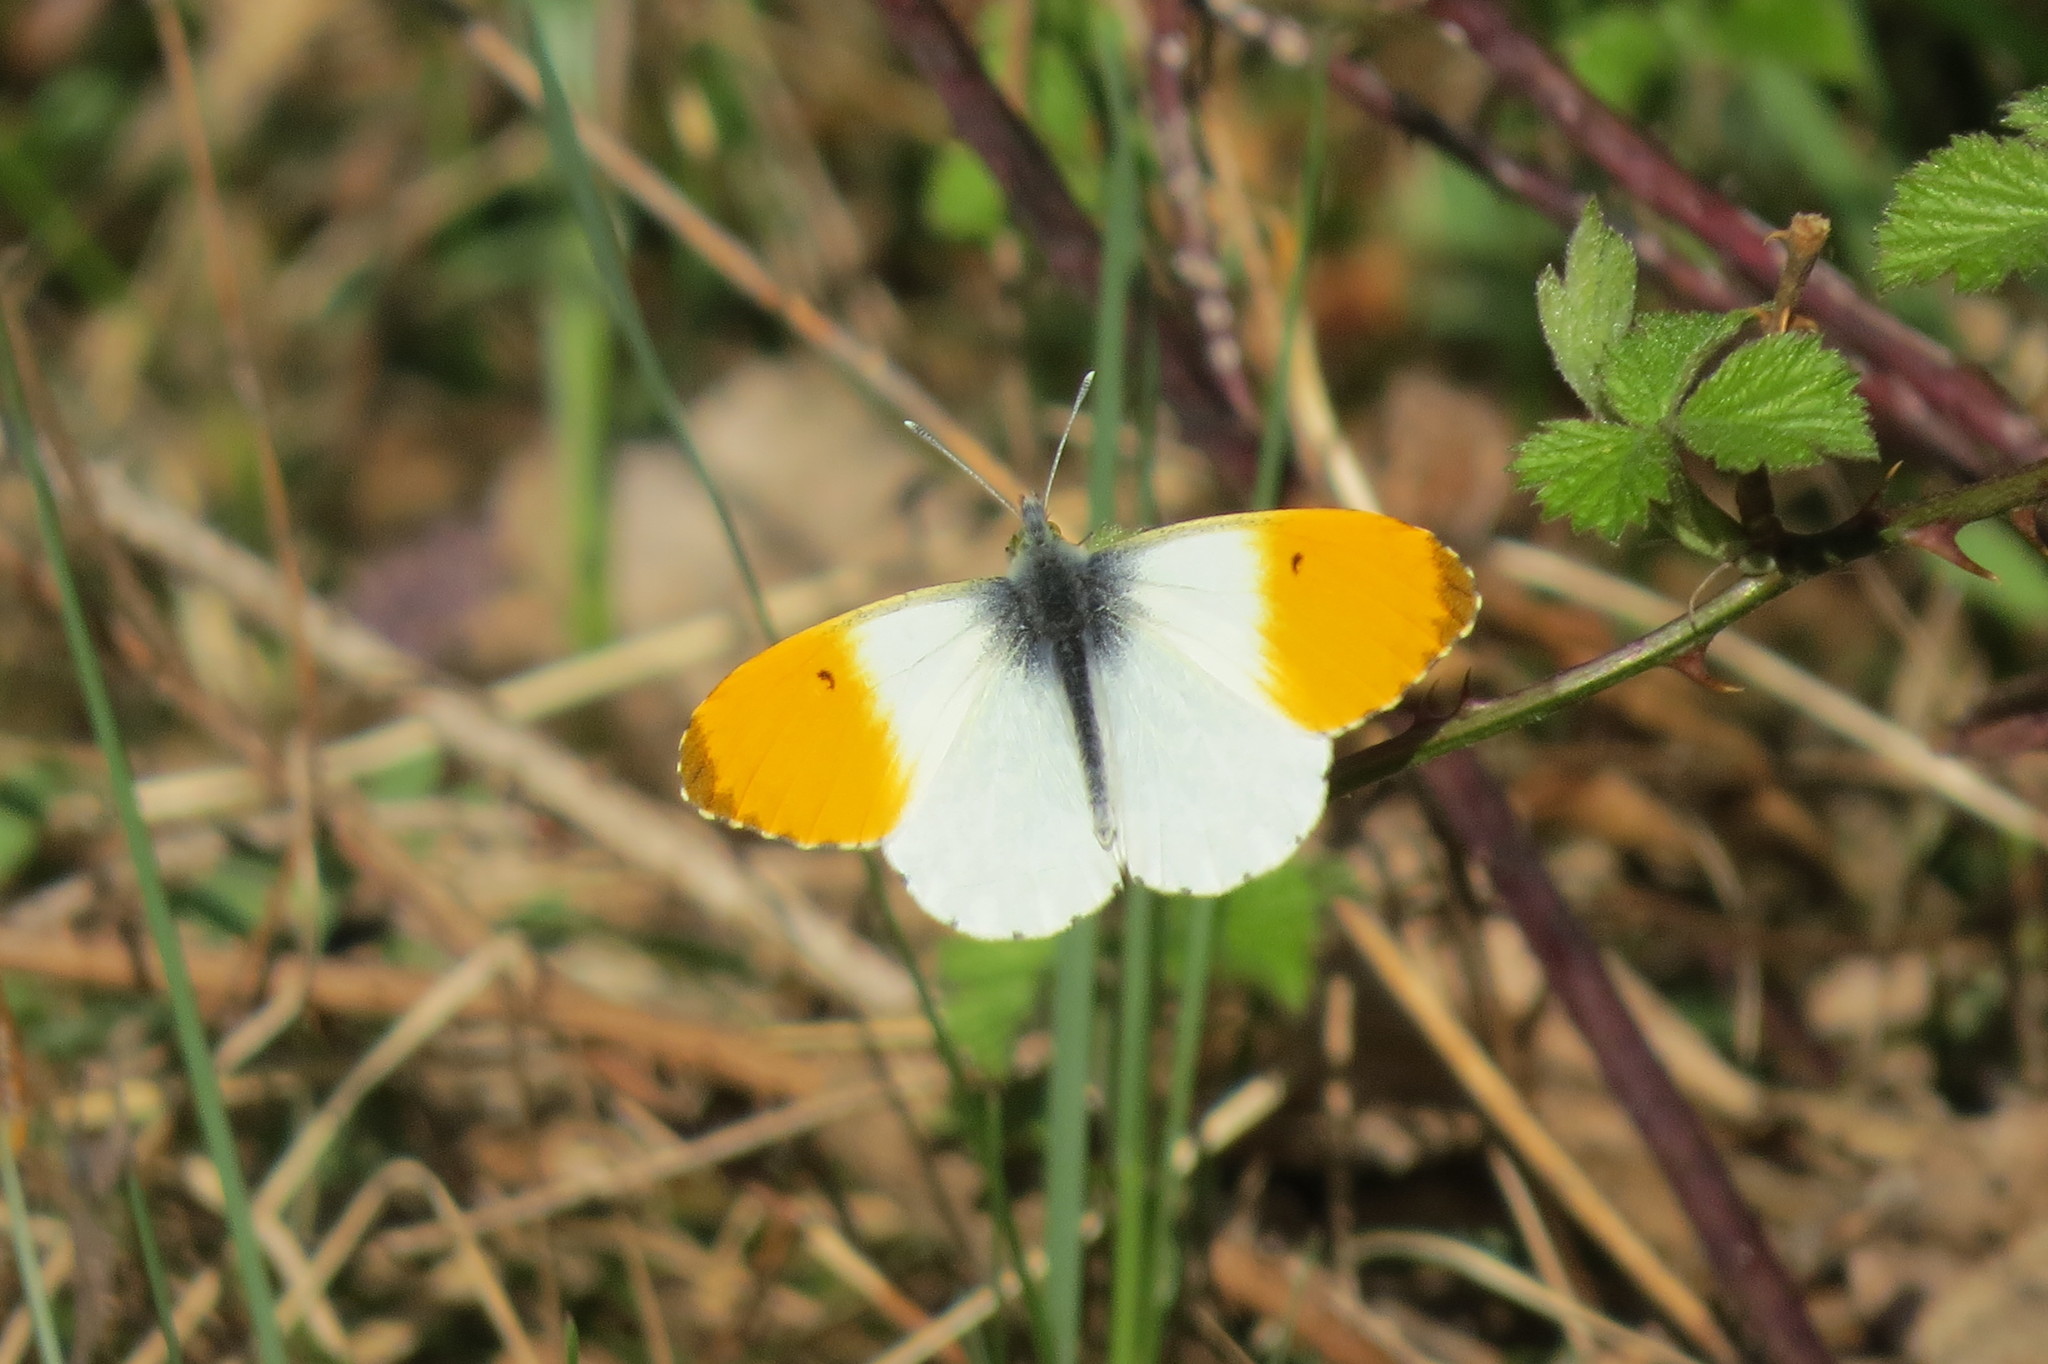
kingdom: Animalia
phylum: Arthropoda
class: Insecta
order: Lepidoptera
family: Pieridae
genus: Anthocharis
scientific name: Anthocharis cardamines
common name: Orange-tip
